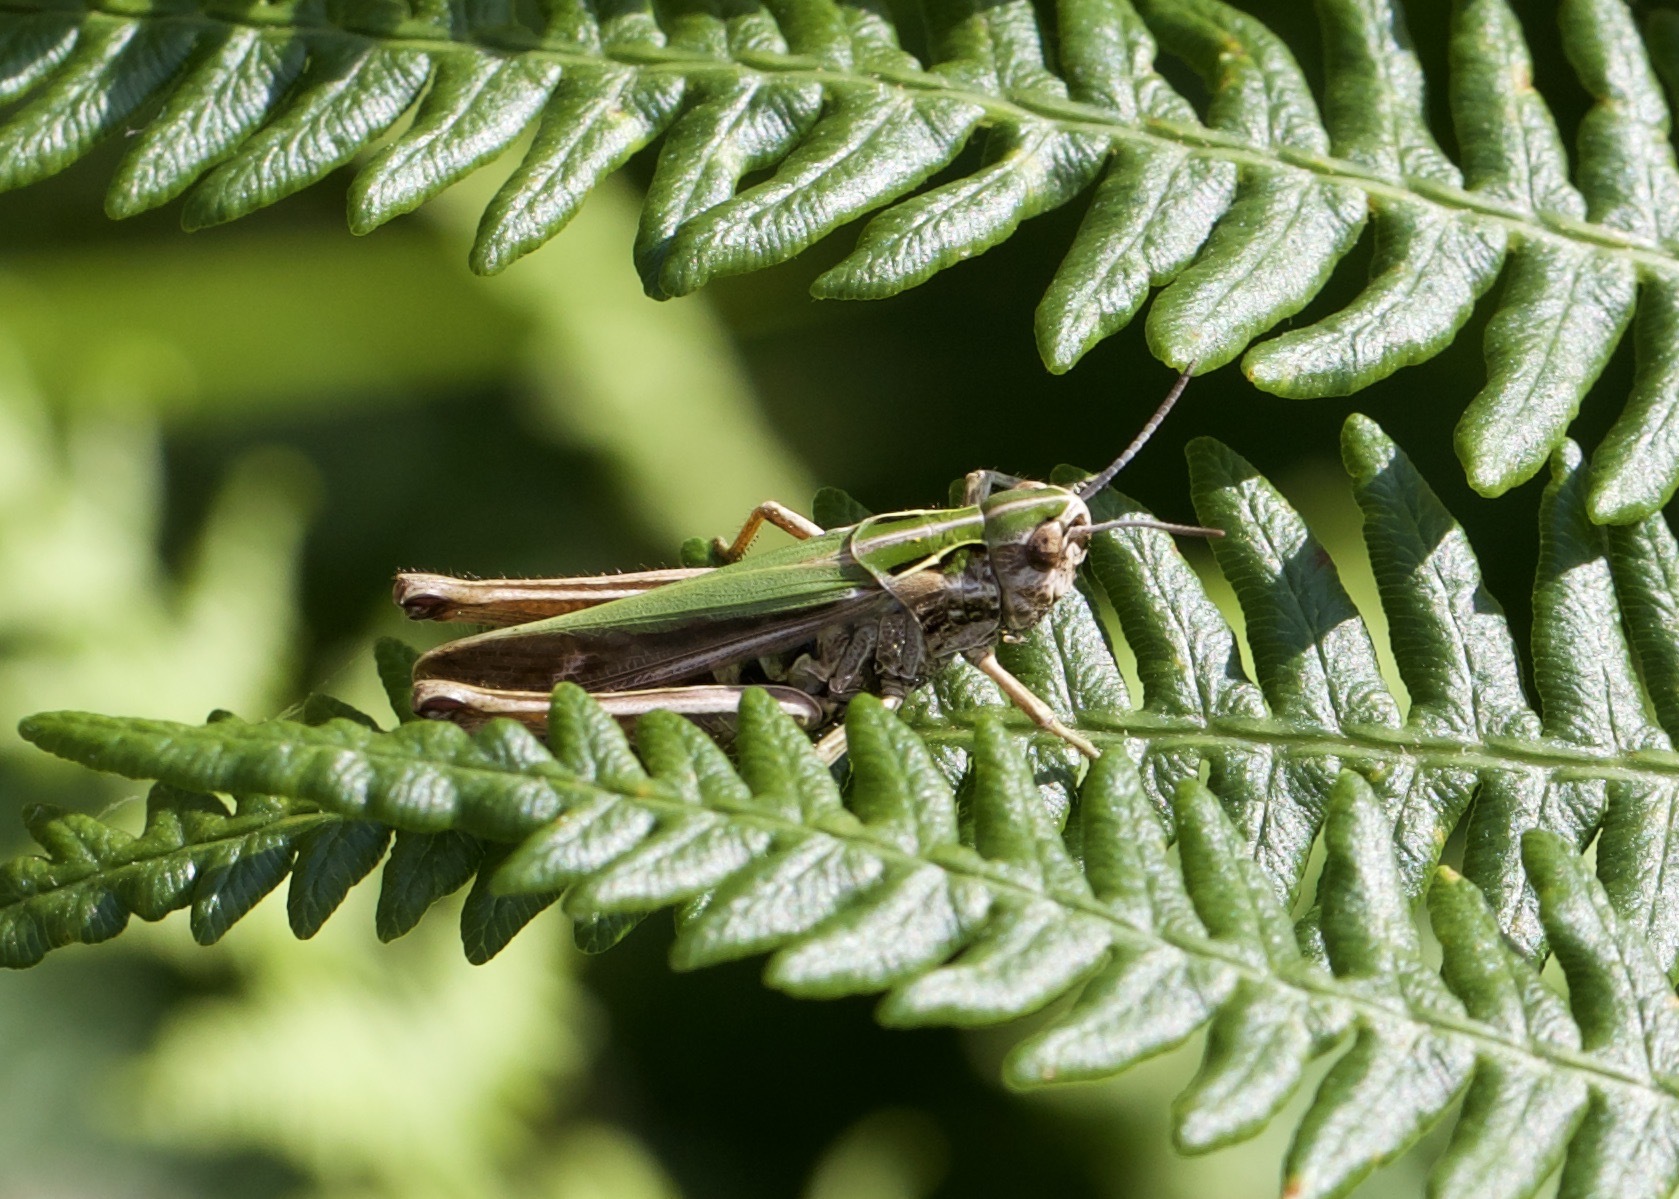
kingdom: Animalia
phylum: Arthropoda
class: Insecta
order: Orthoptera
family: Acrididae
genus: Omocestus
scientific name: Omocestus viridulus
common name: Common green grasshopper
